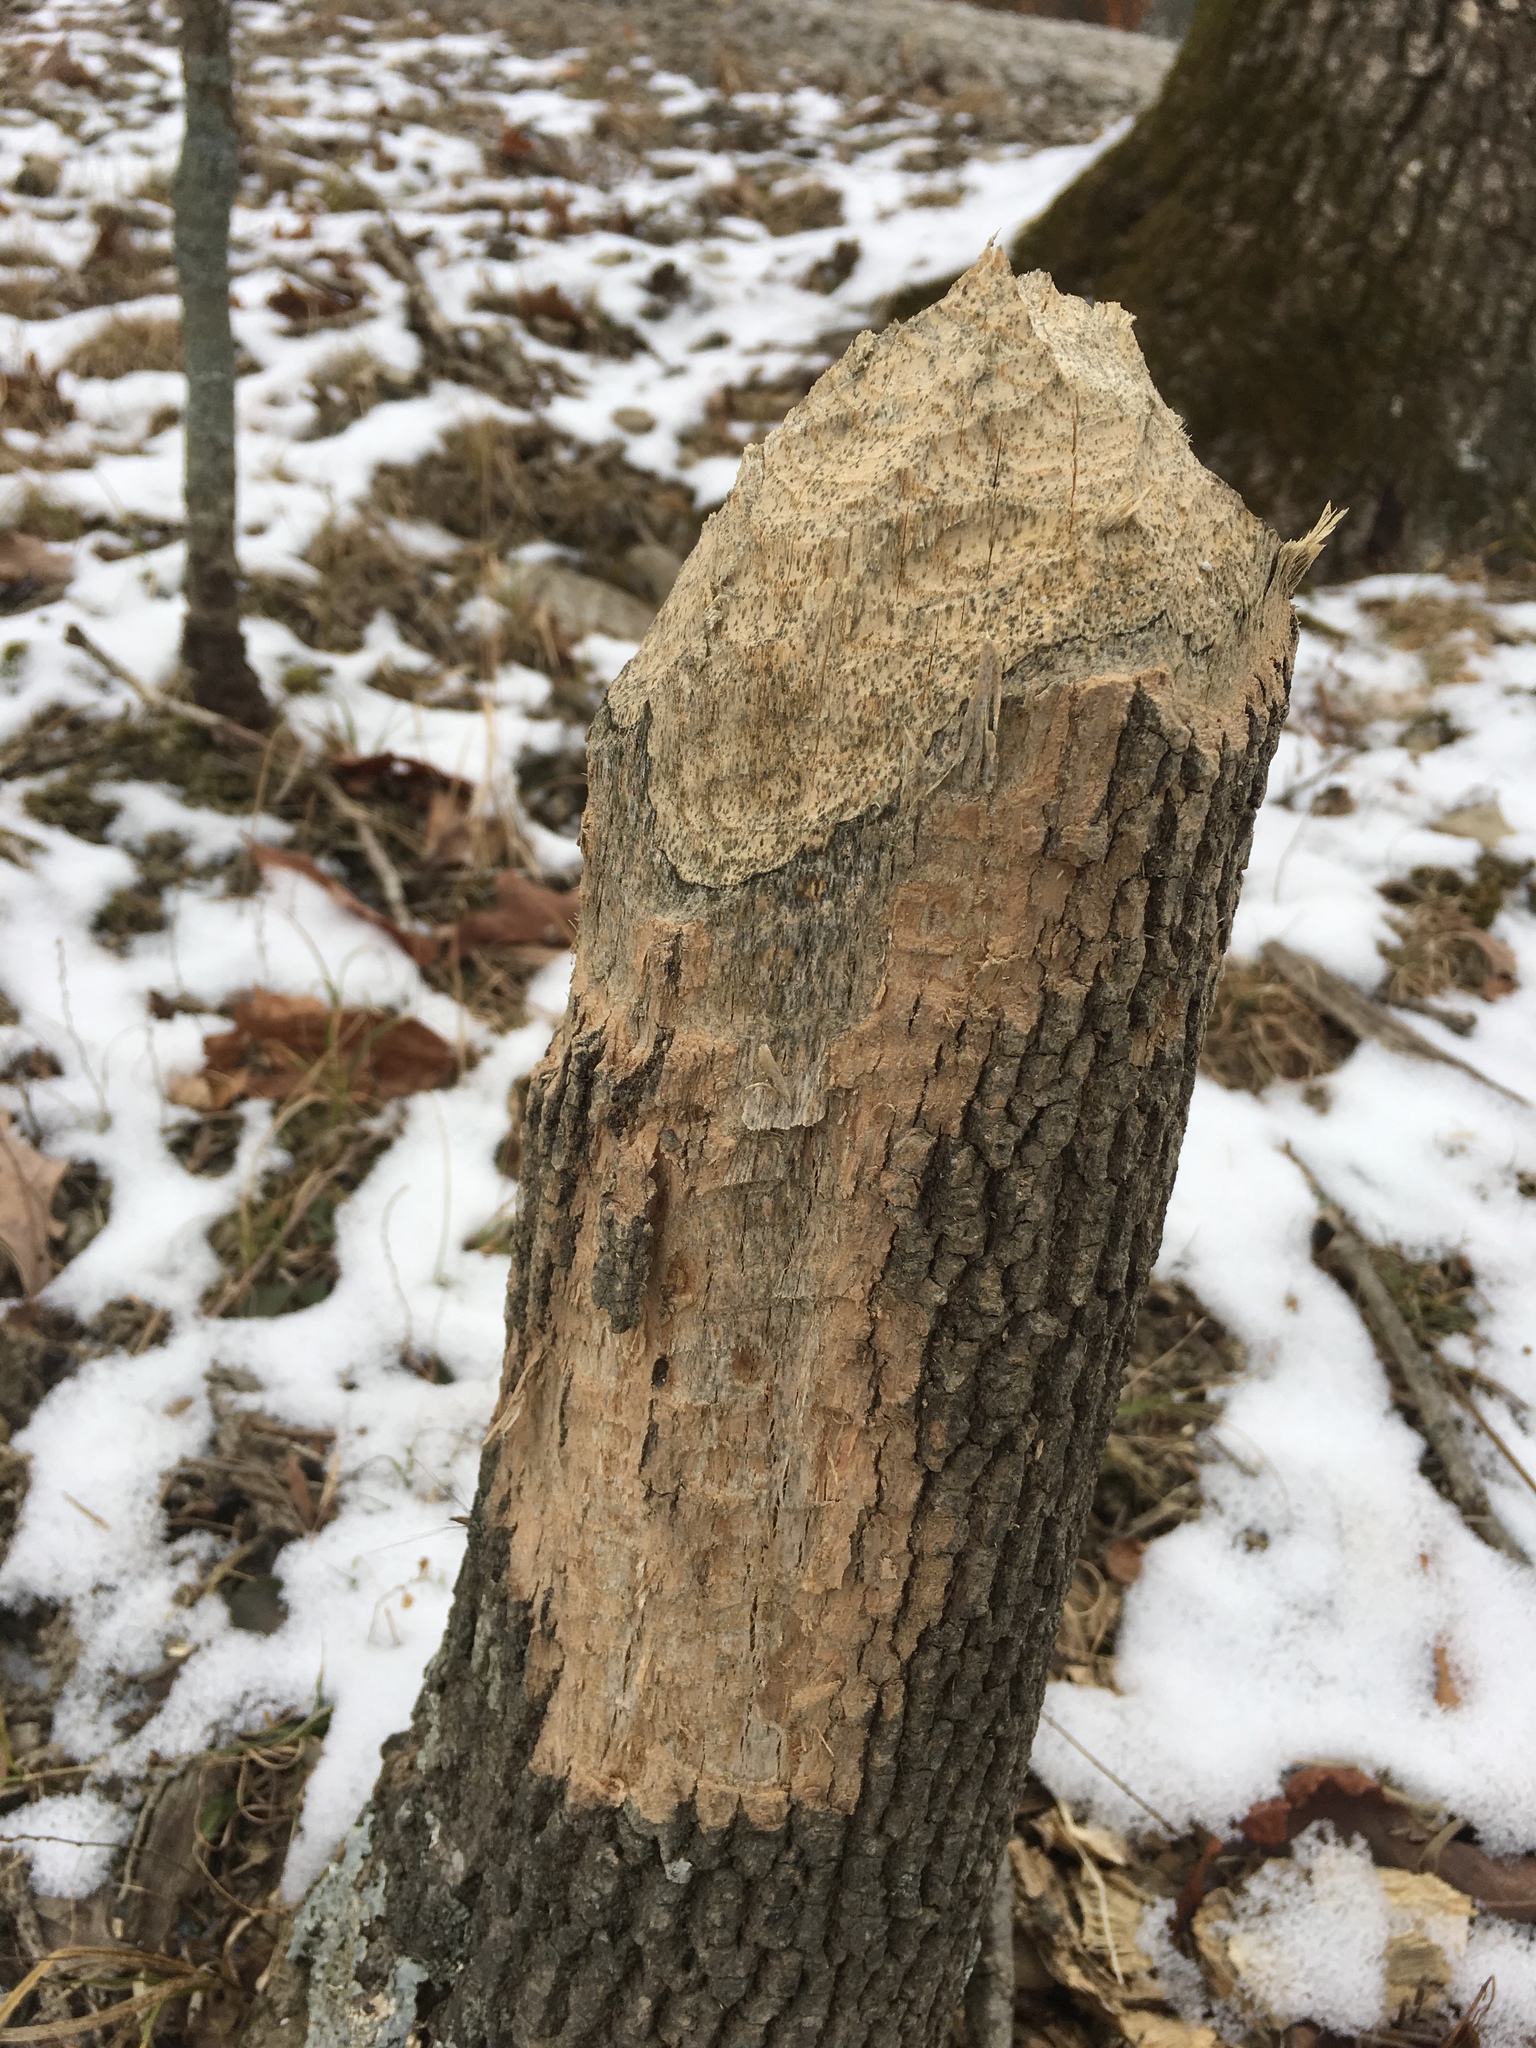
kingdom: Animalia
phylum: Chordata
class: Mammalia
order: Rodentia
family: Castoridae
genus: Castor
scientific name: Castor canadensis
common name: American beaver
